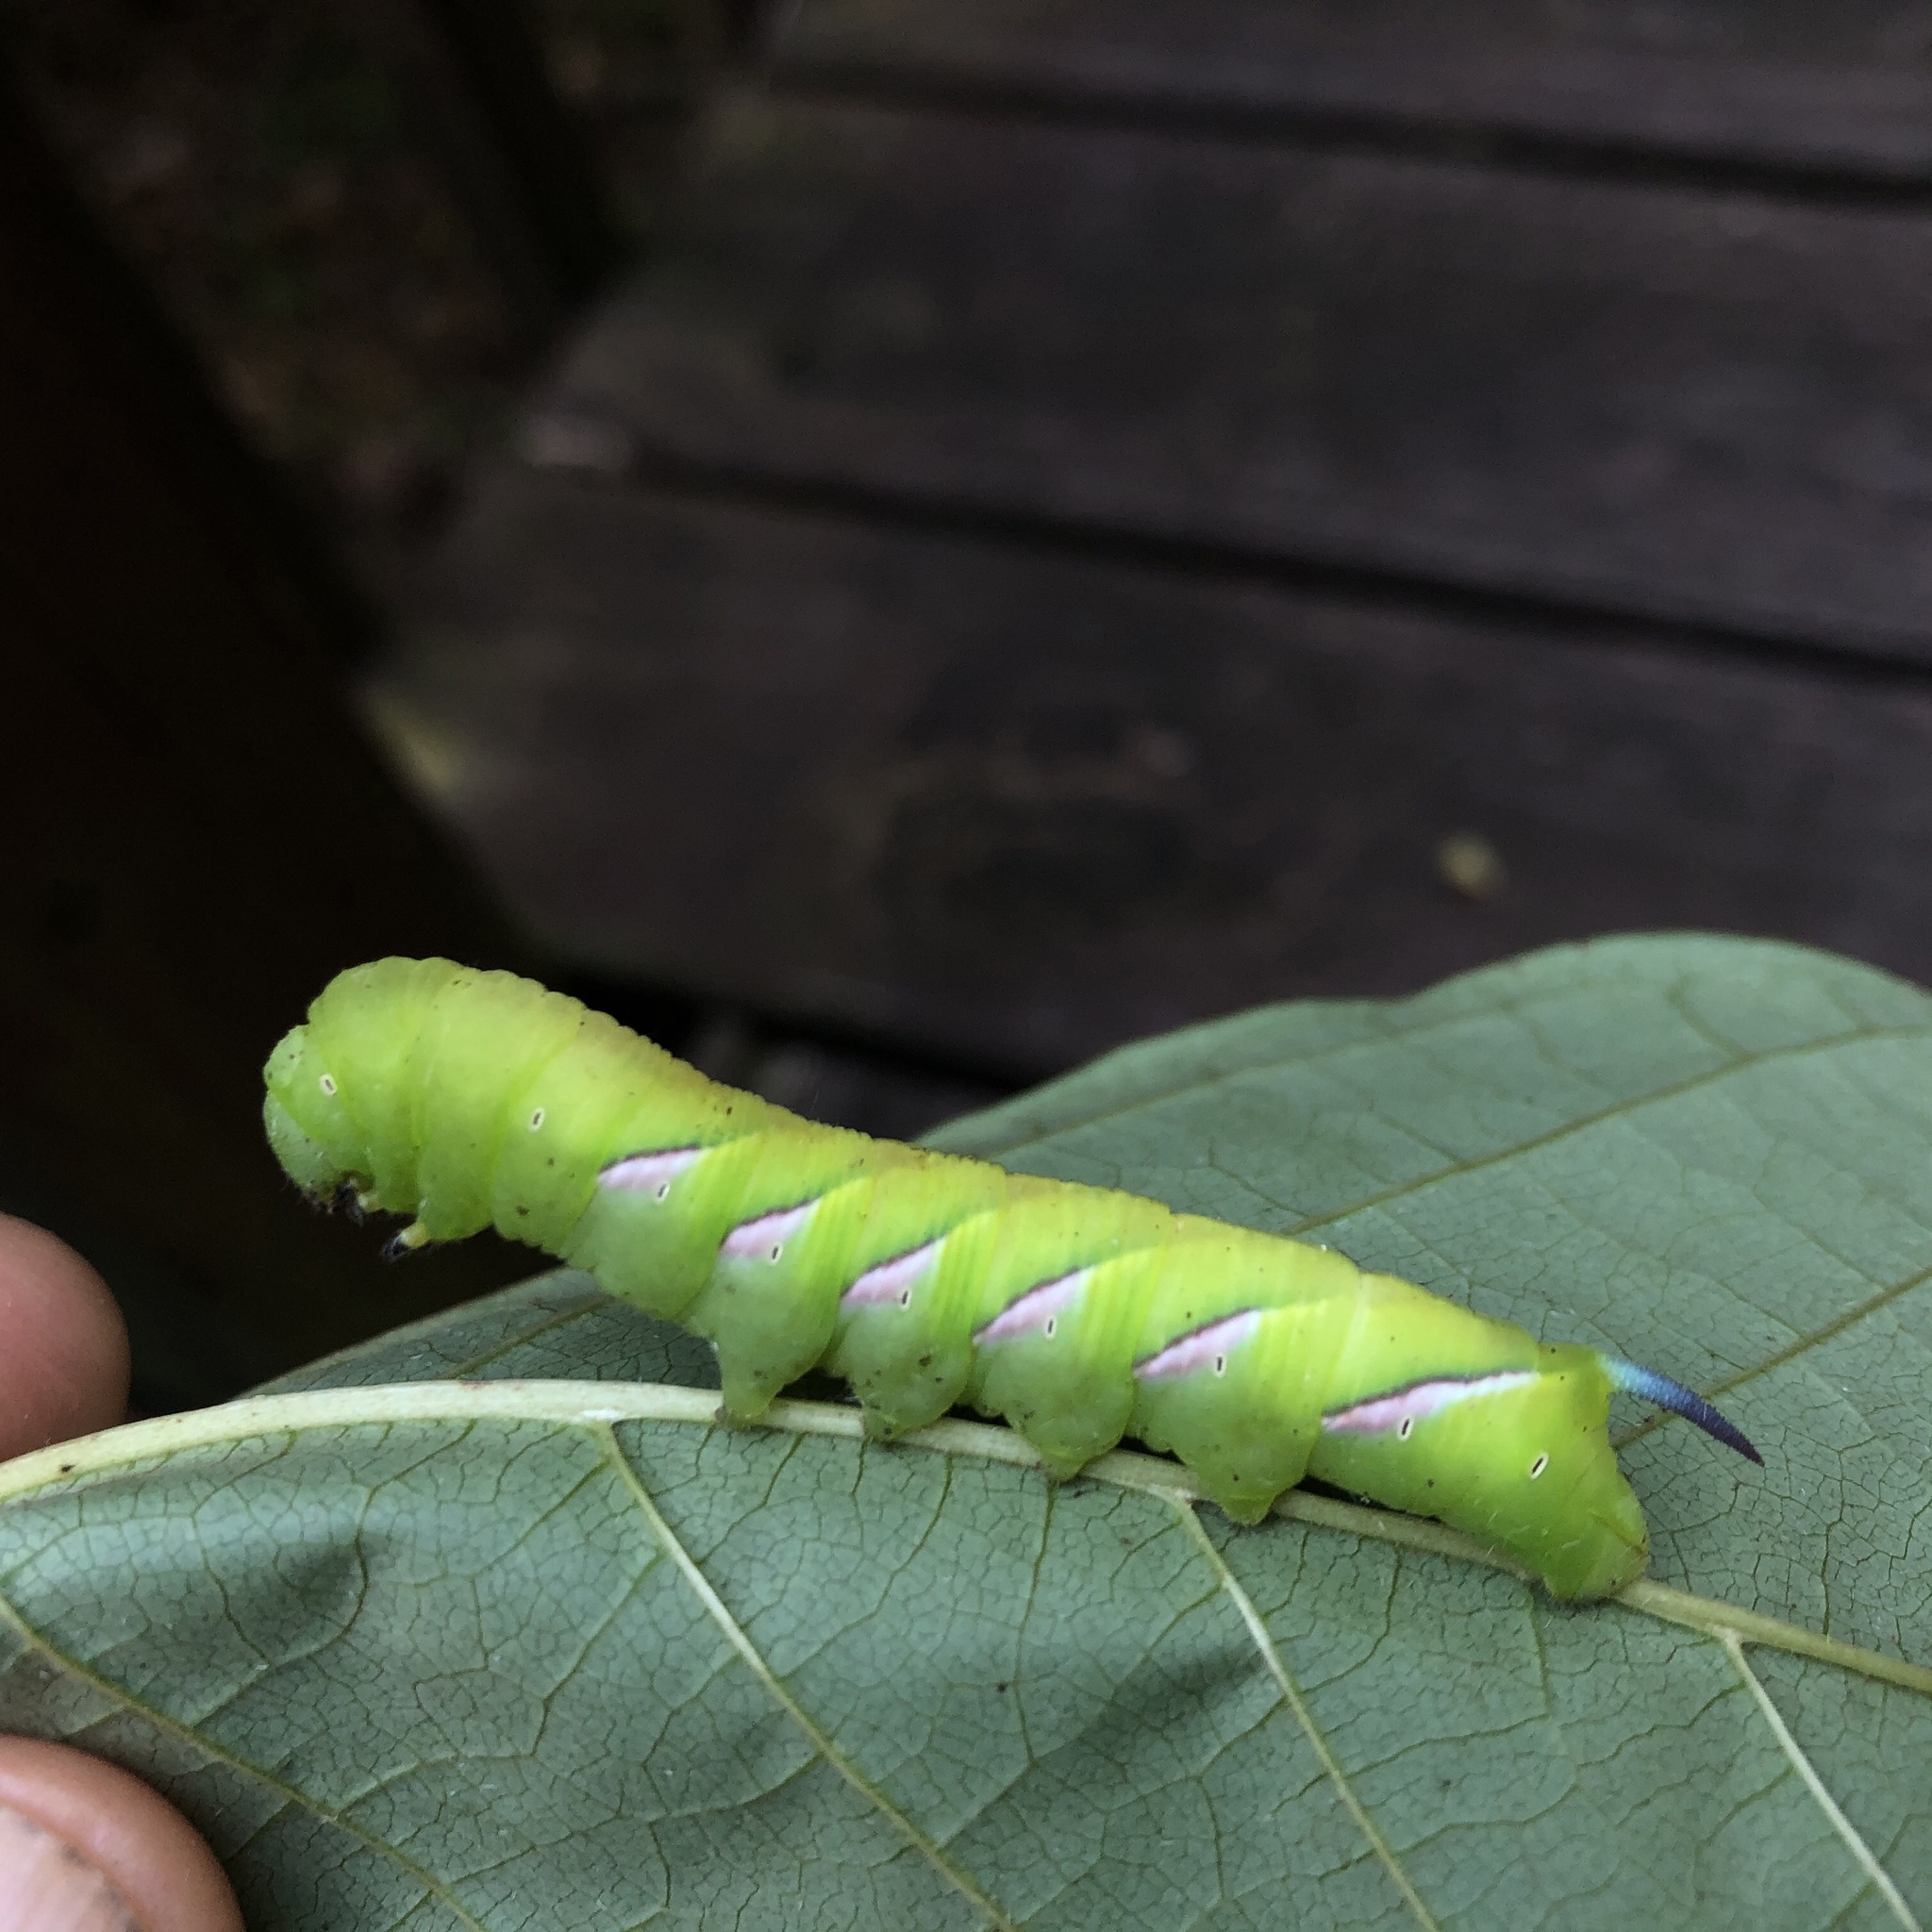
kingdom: Animalia
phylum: Arthropoda
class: Insecta
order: Lepidoptera
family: Sphingidae
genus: Dolba
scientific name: Dolba hyloeus
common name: Pawpaw sphinx
